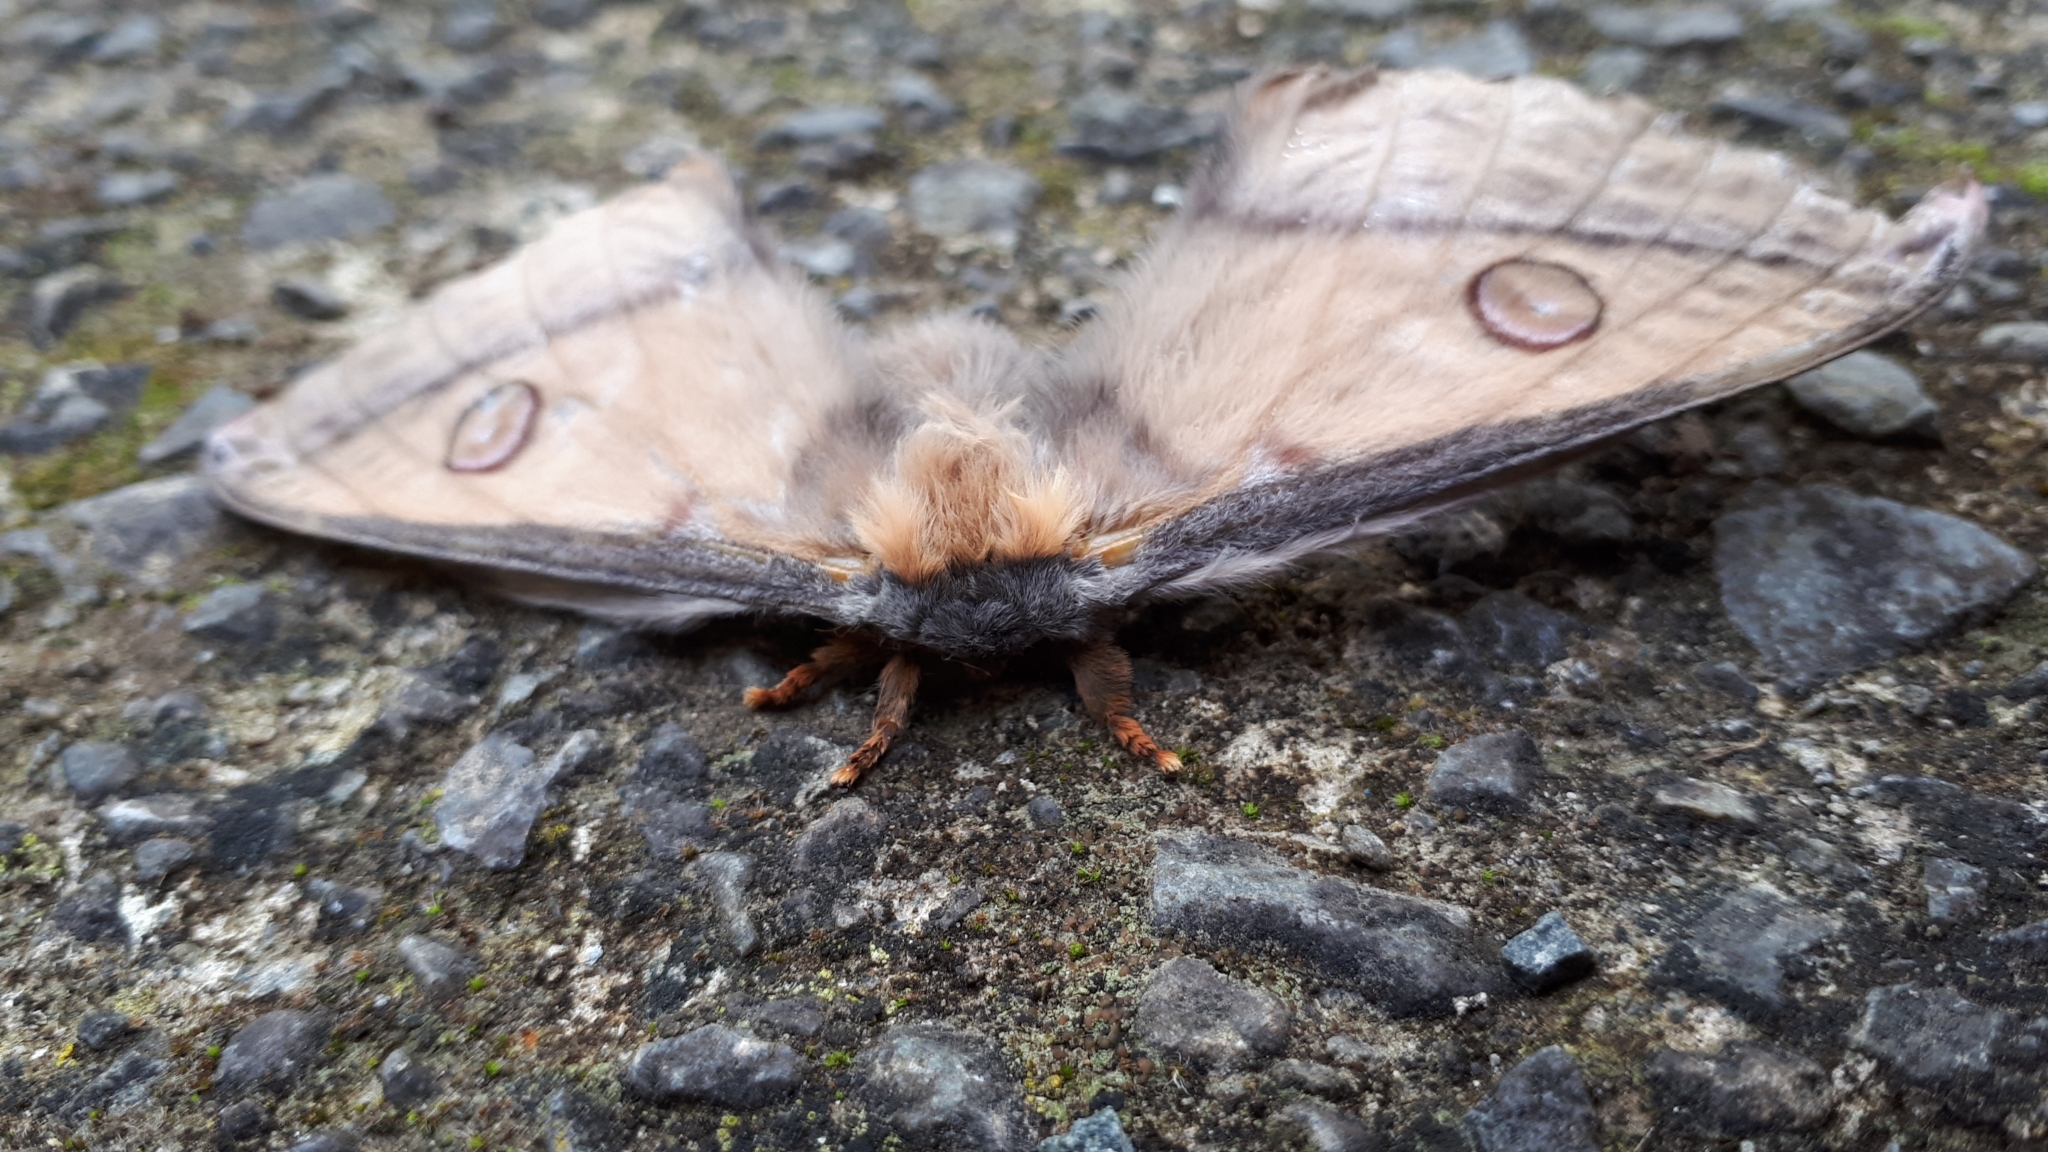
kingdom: Animalia
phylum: Arthropoda
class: Insecta
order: Lepidoptera
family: Saturniidae
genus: Opodiphthera
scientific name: Opodiphthera
